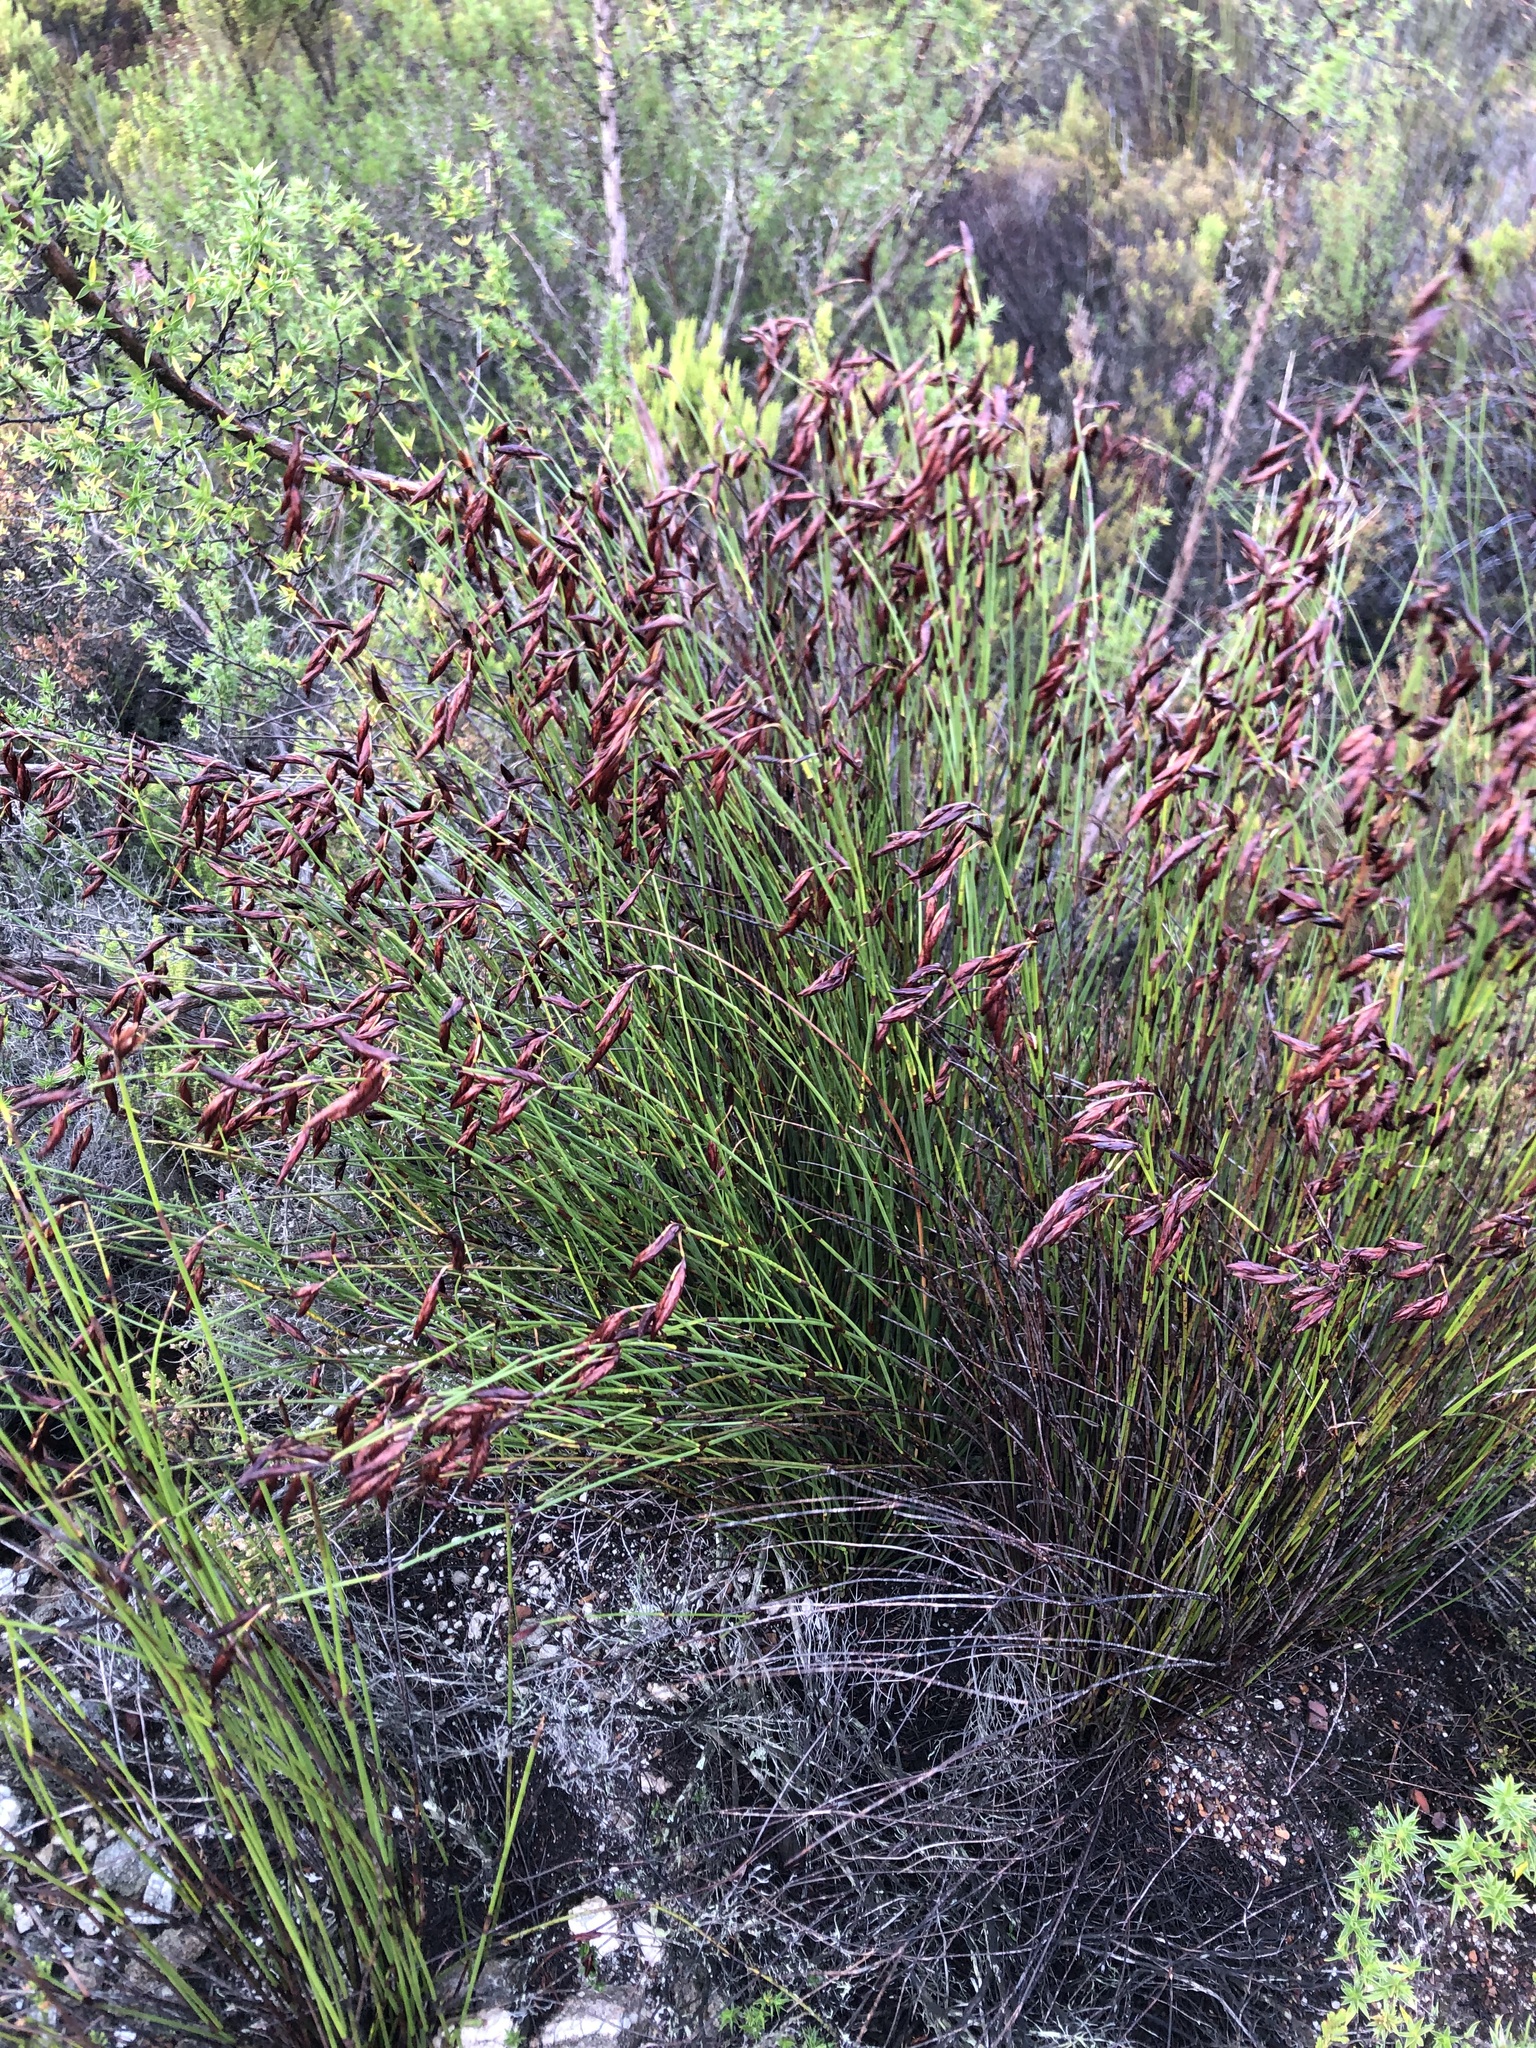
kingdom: Plantae
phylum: Tracheophyta
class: Liliopsida
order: Poales
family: Restionaceae
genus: Restio
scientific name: Restio bifarius
